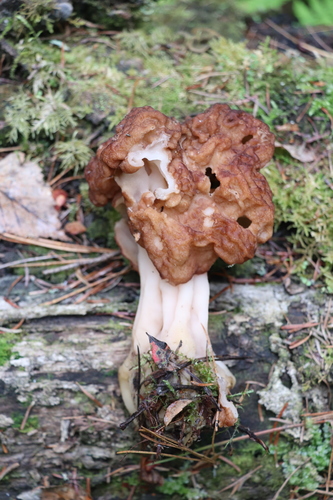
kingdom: Fungi
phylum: Ascomycota
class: Pezizomycetes
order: Pezizales
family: Discinaceae
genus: Gyromitra
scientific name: Gyromitra
